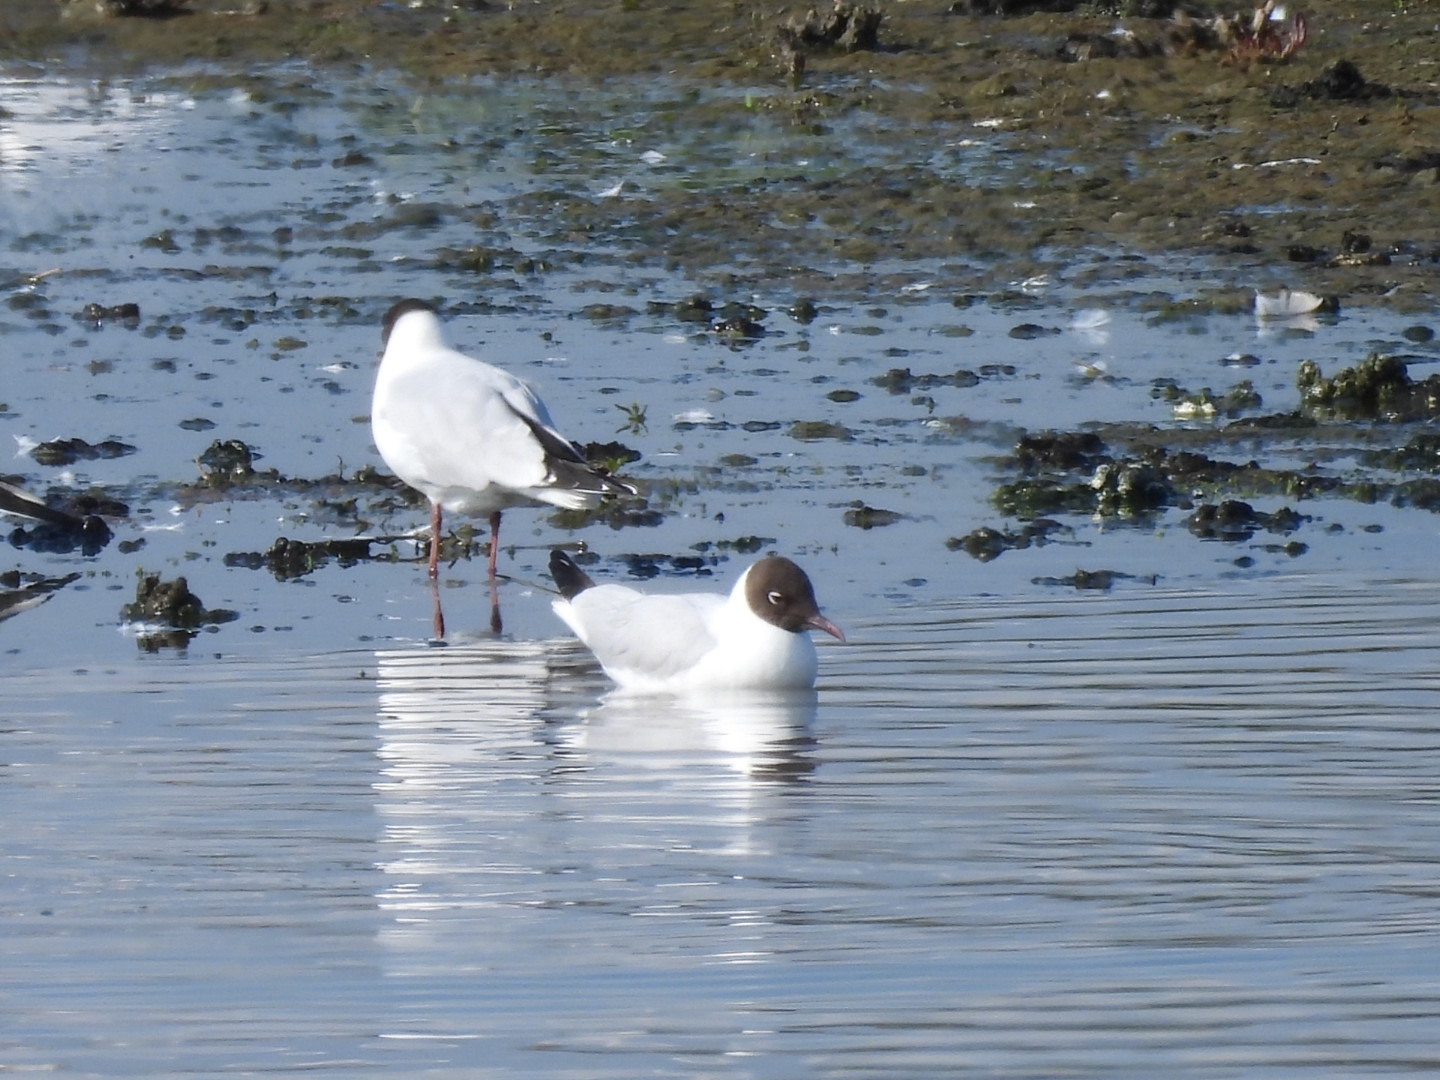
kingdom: Animalia
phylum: Chordata
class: Aves
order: Charadriiformes
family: Laridae
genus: Chroicocephalus
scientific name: Chroicocephalus ridibundus
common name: Black-headed gull
